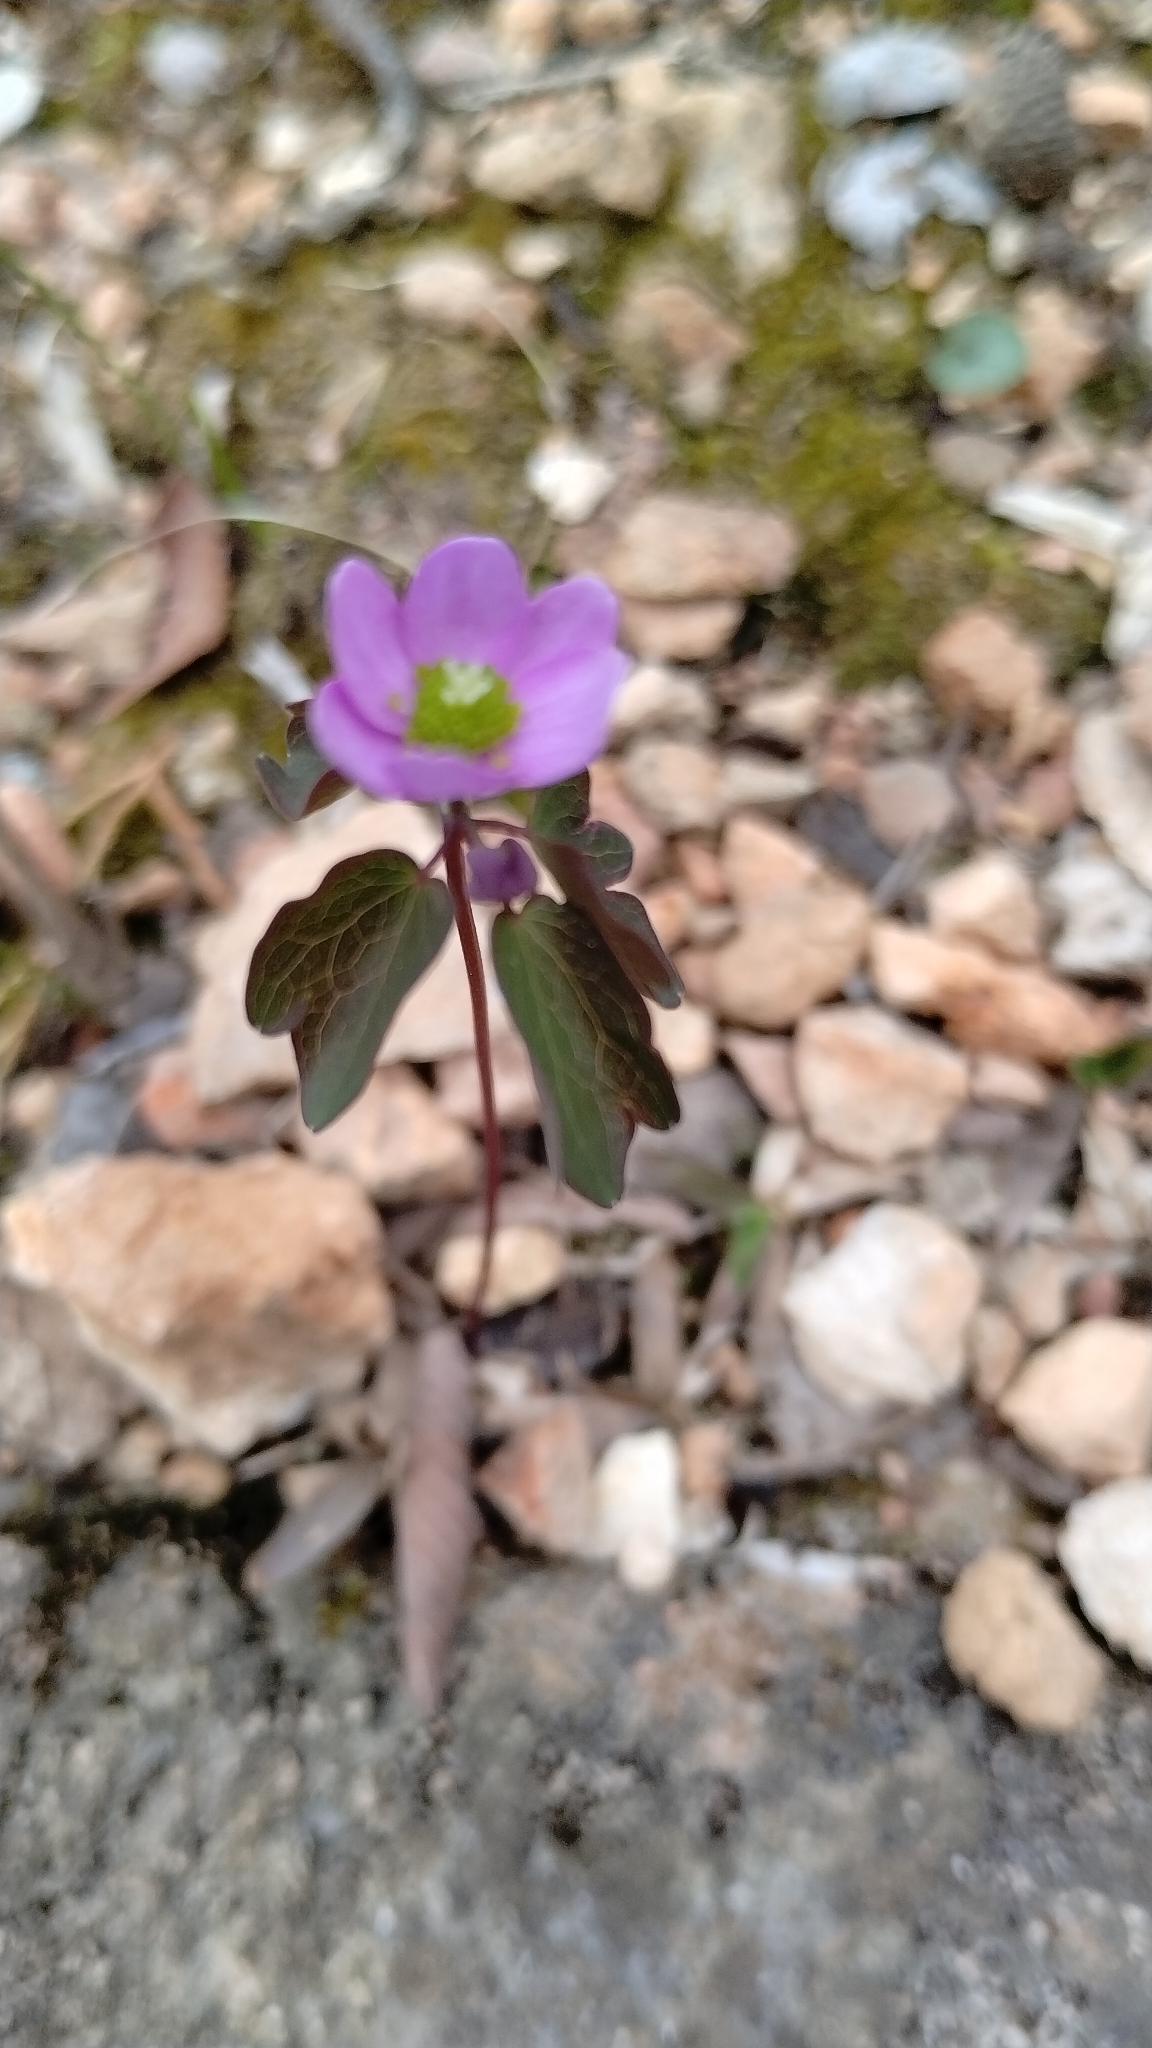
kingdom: Plantae
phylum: Tracheophyta
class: Magnoliopsida
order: Ranunculales
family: Ranunculaceae
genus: Thalictrum
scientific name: Thalictrum thalictroides
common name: Rue-anemone
